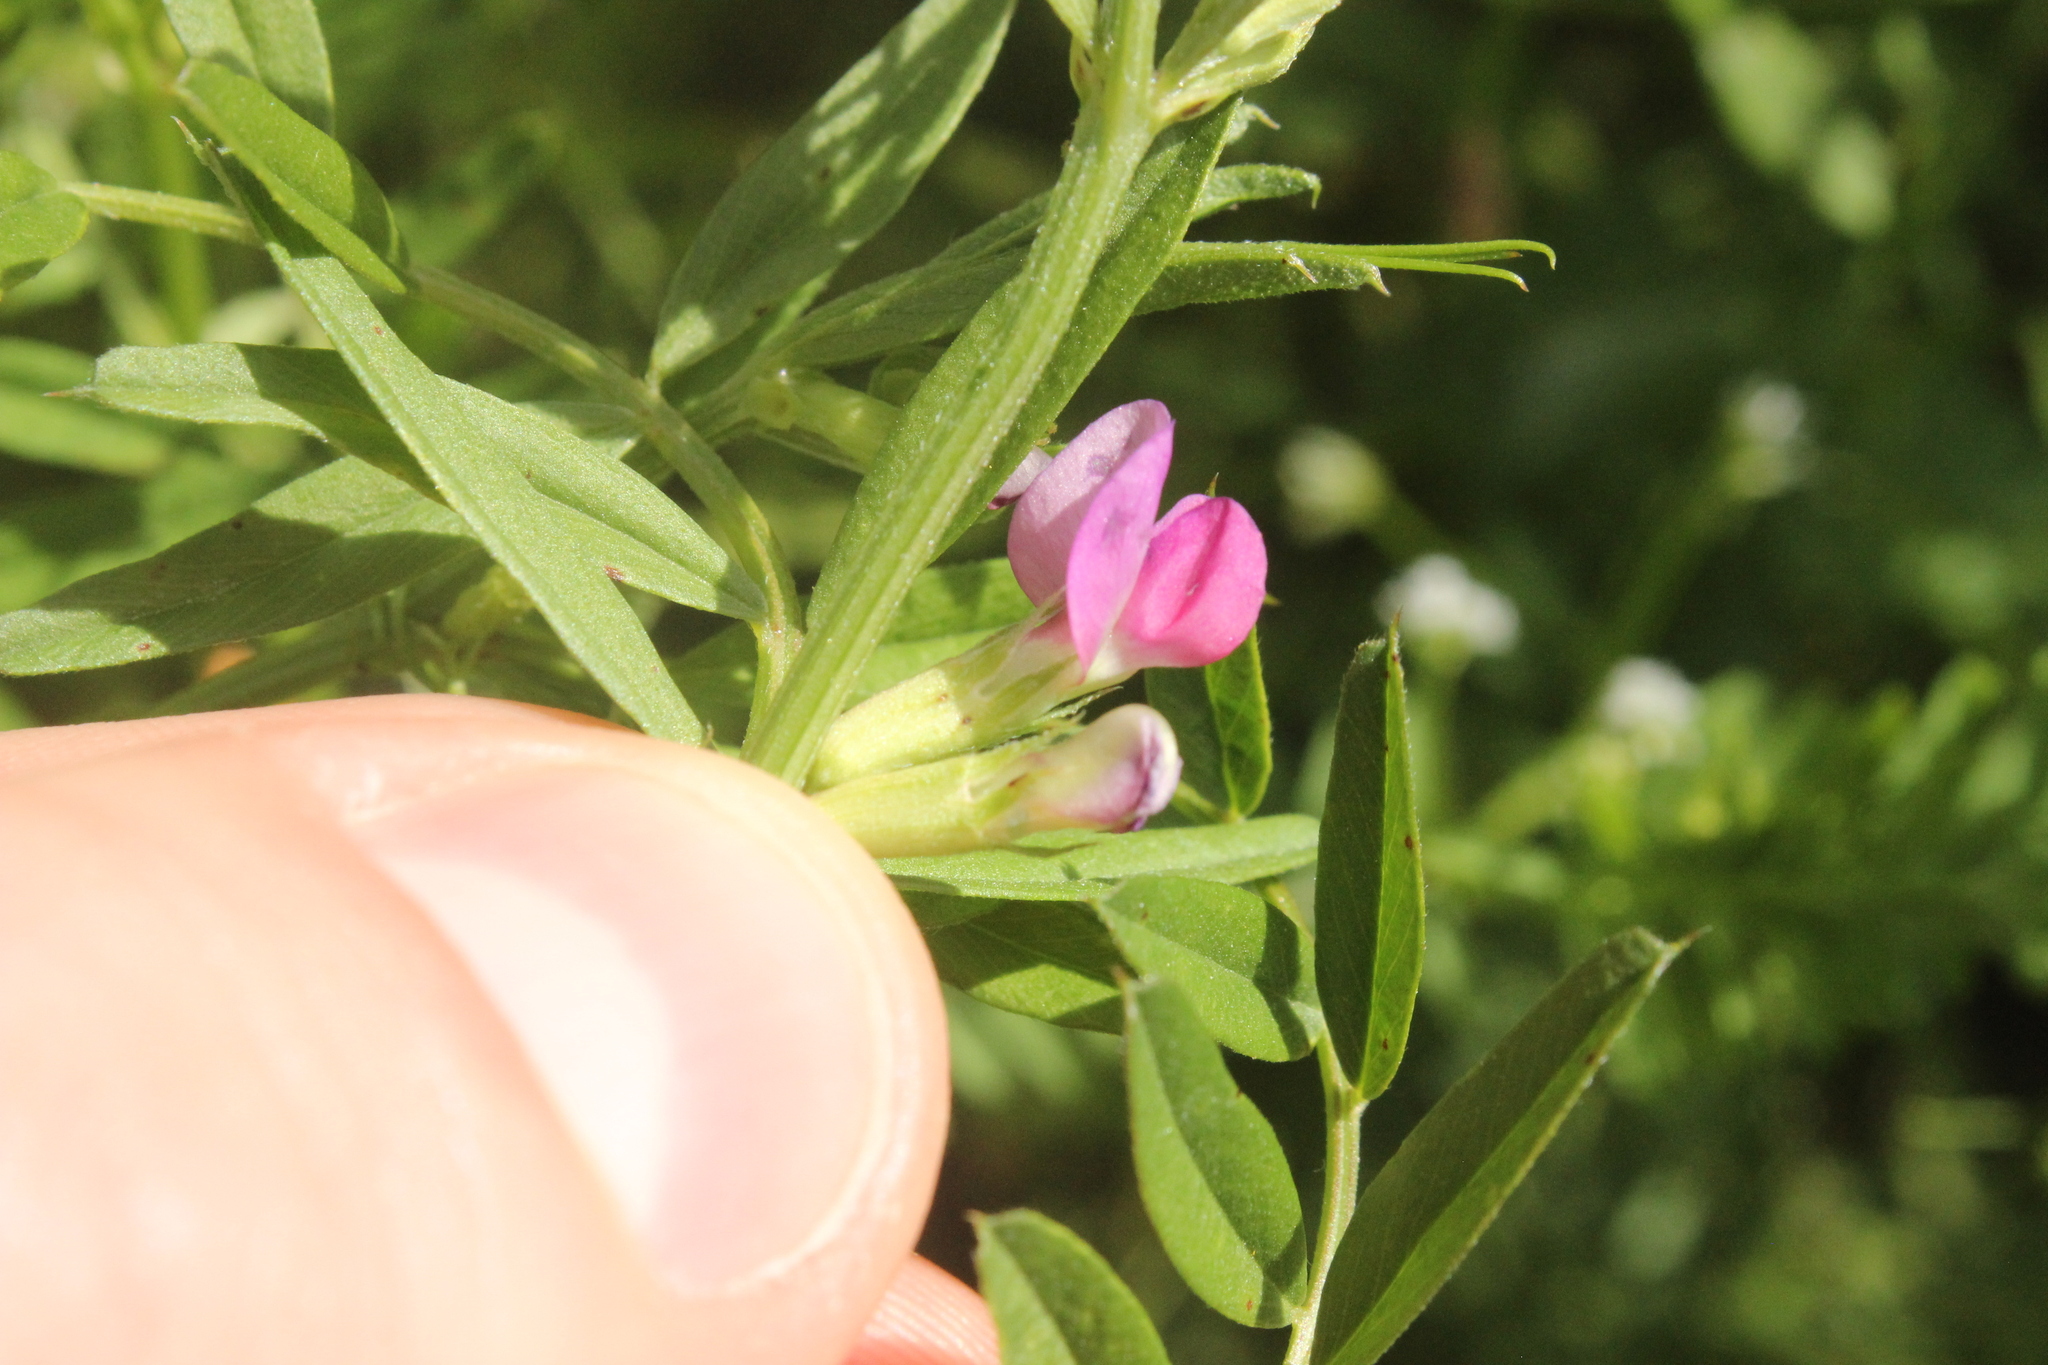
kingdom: Plantae
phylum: Tracheophyta
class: Magnoliopsida
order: Fabales
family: Fabaceae
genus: Vicia
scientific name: Vicia sativa
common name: Garden vetch
